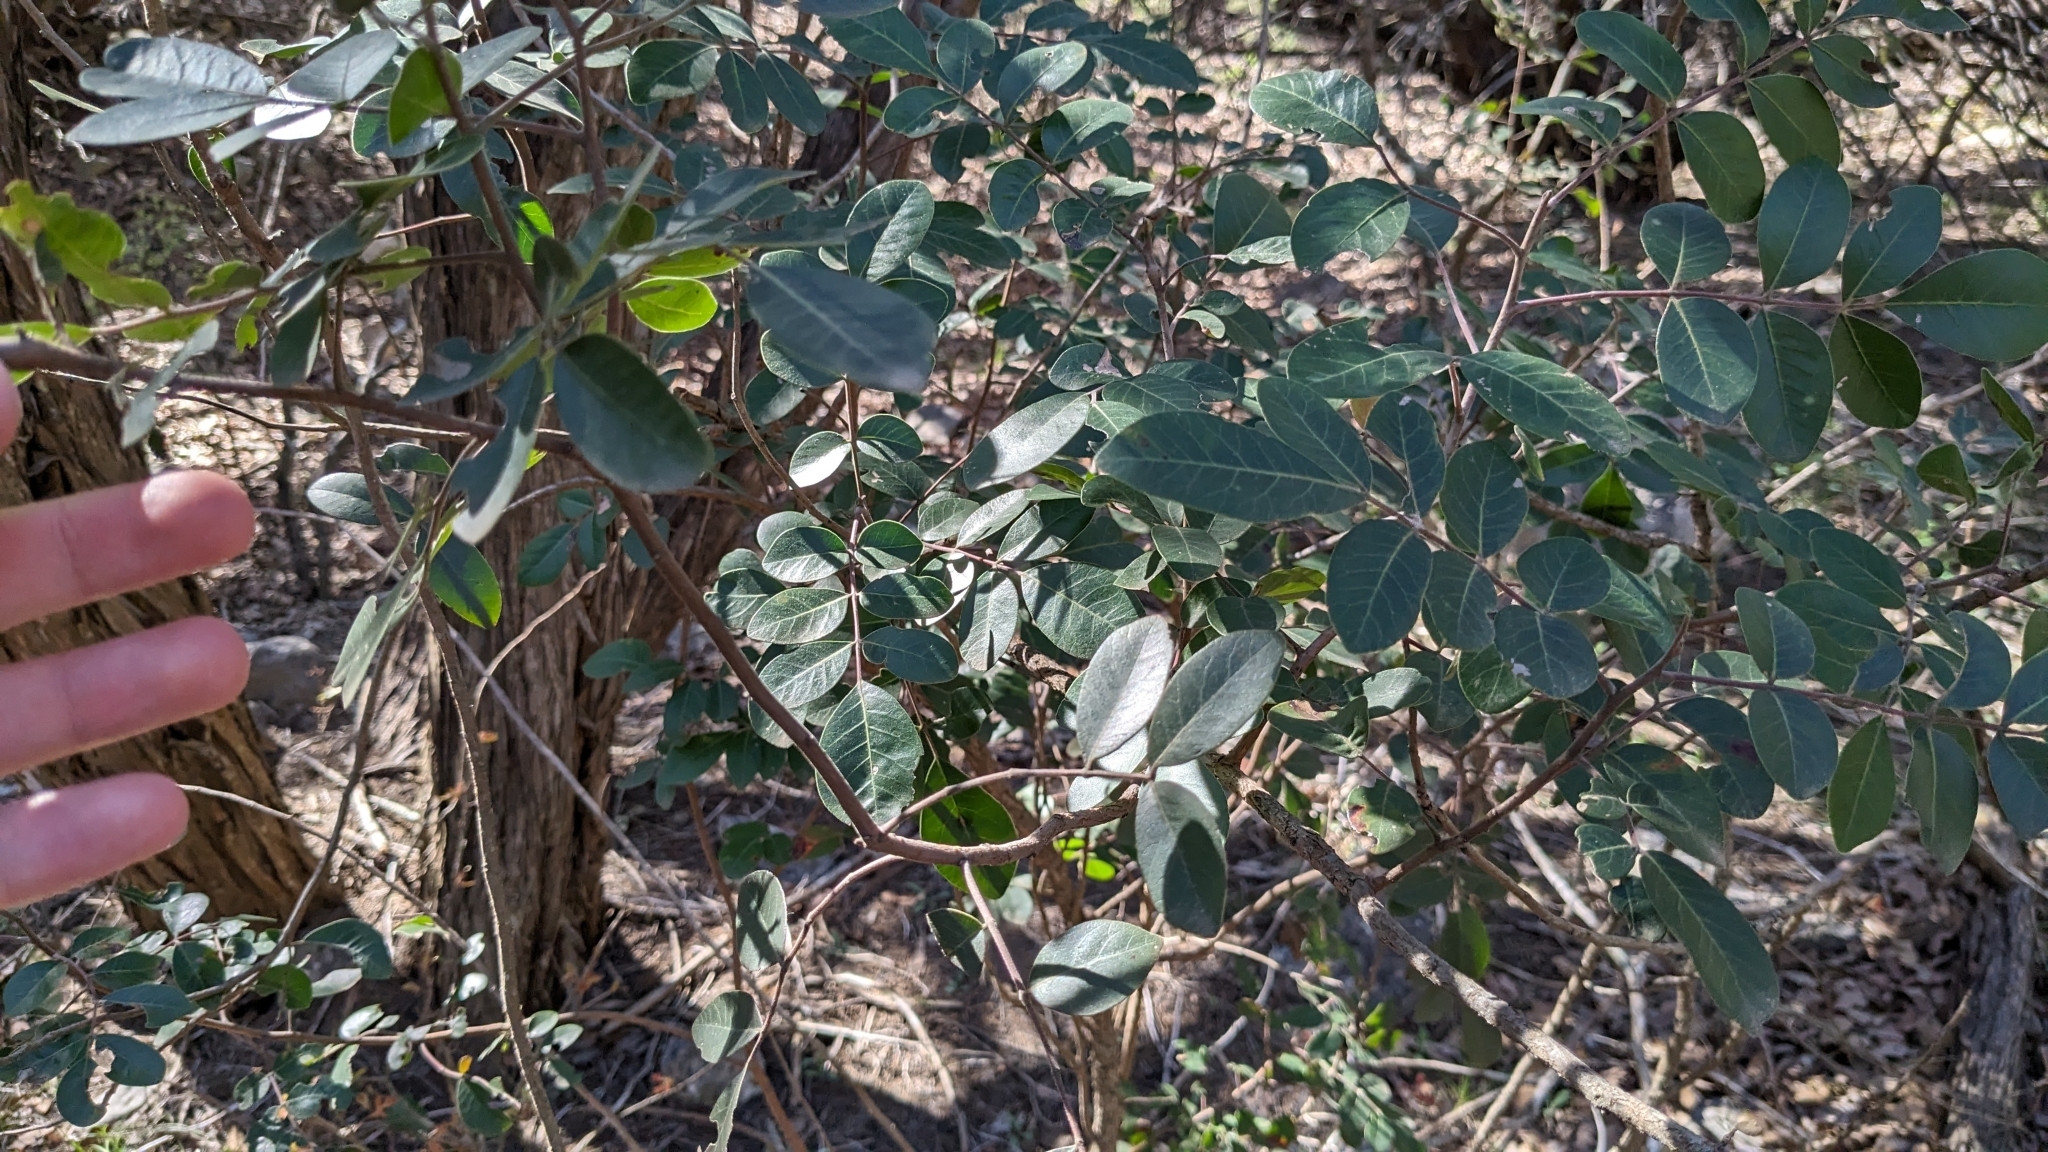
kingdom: Plantae
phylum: Tracheophyta
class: Magnoliopsida
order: Sapindales
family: Anacardiaceae
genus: Rhus
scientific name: Rhus virens
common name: Evergreen sumac
